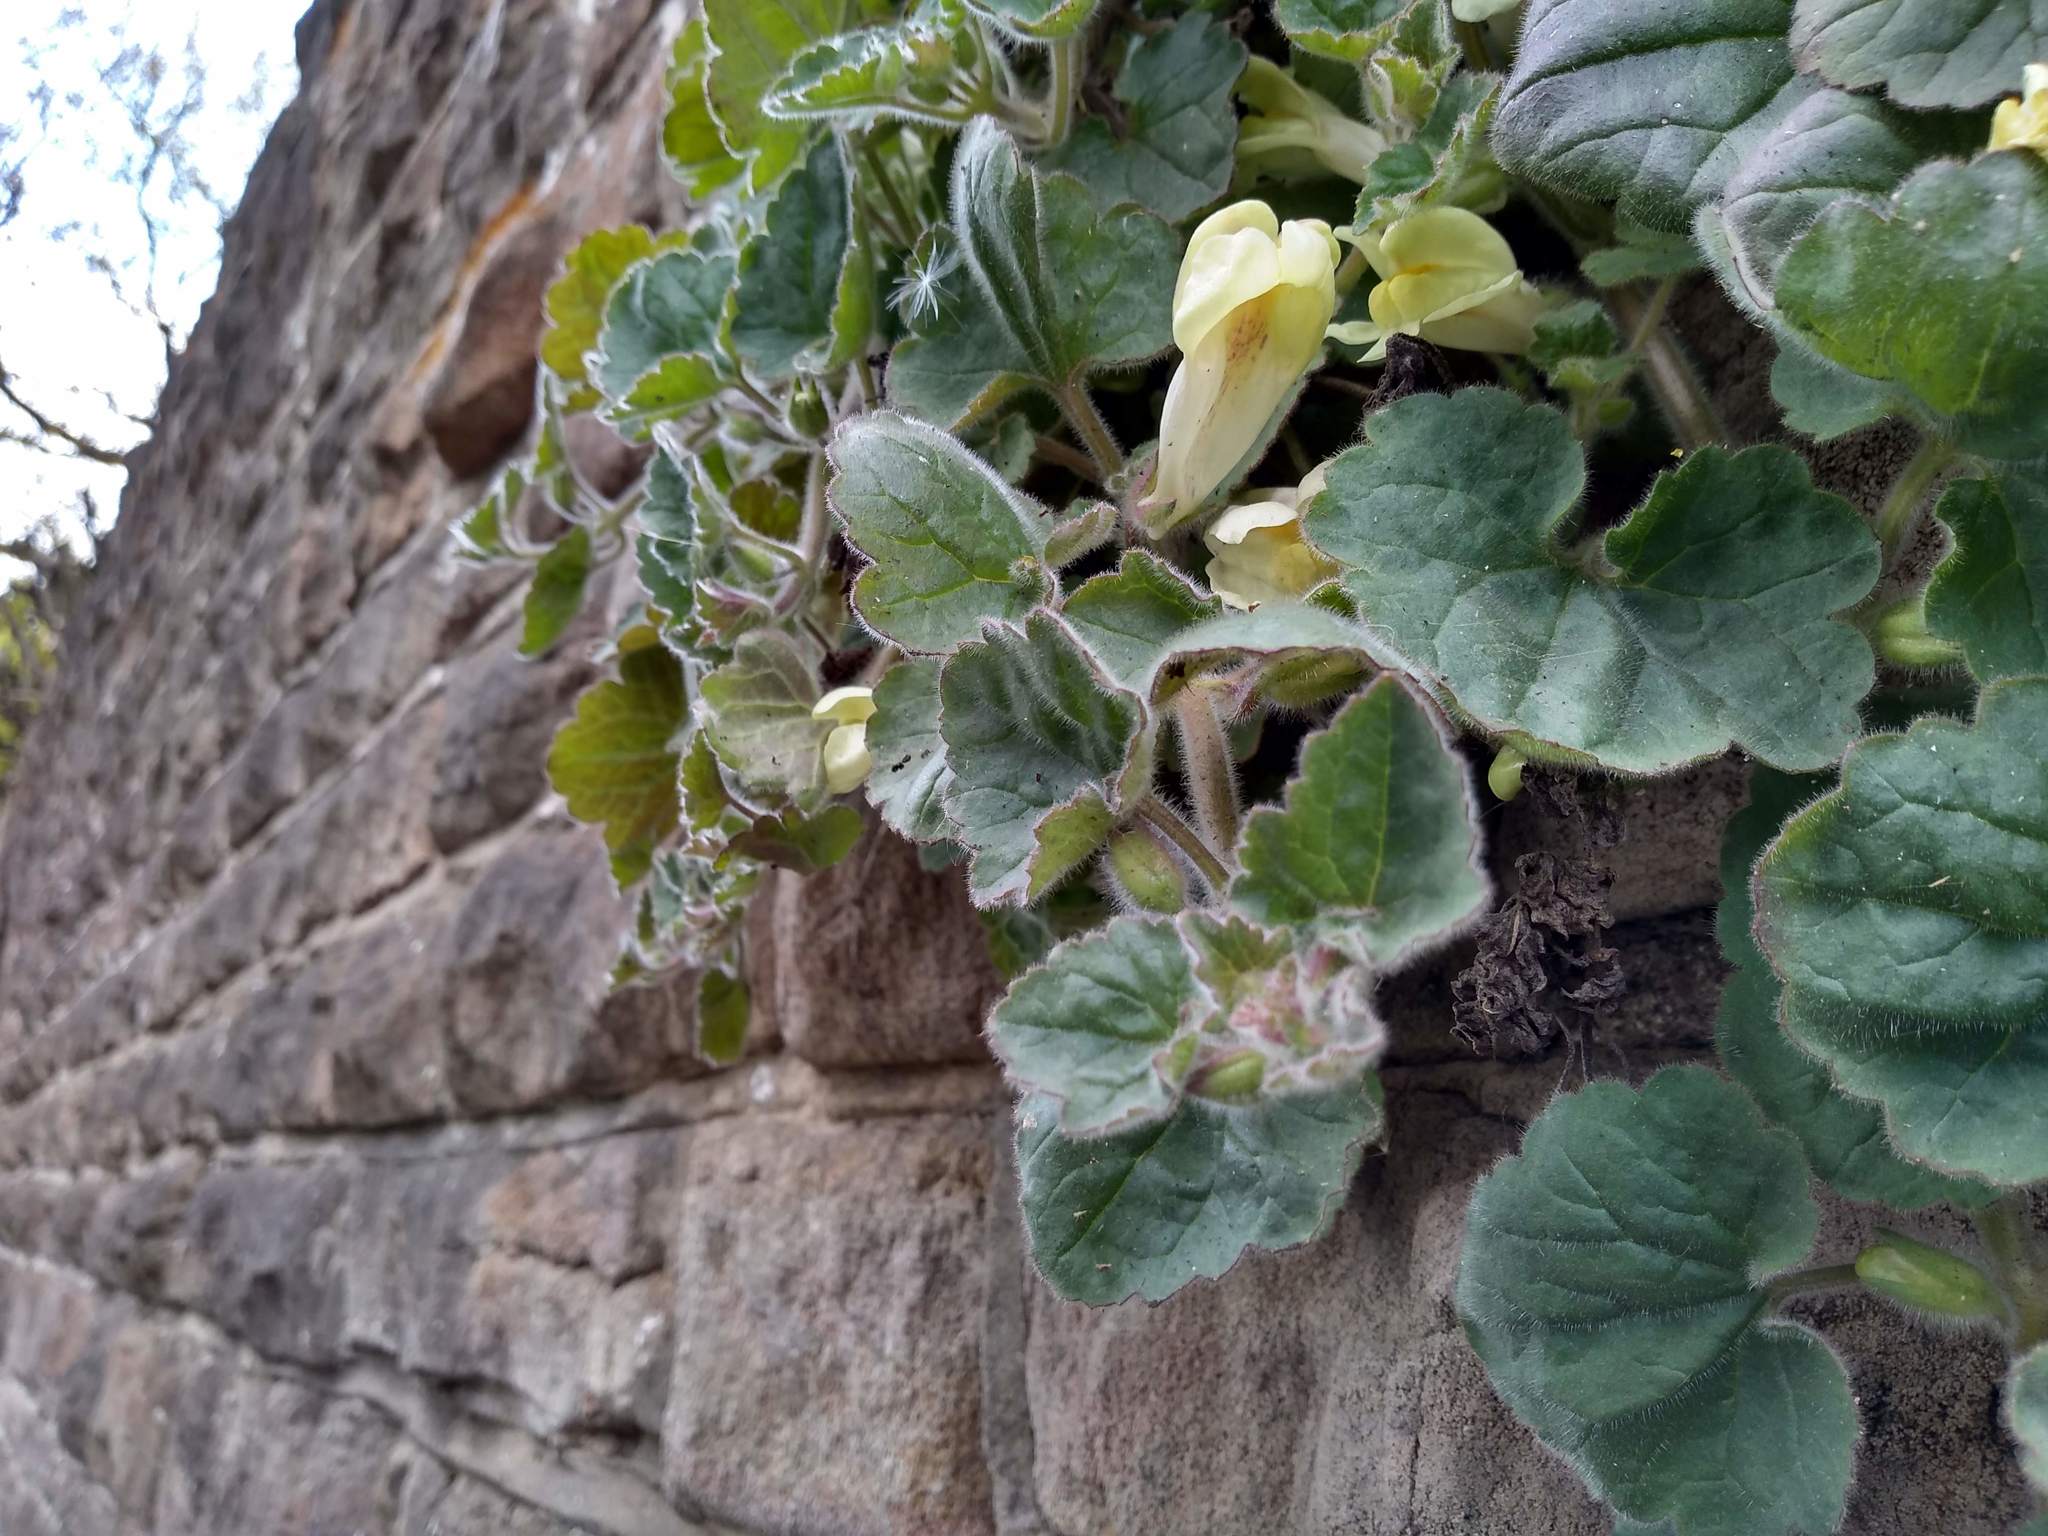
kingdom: Plantae
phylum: Tracheophyta
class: Magnoliopsida
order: Lamiales
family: Plantaginaceae
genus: Asarina
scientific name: Asarina procumbens
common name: Trailing snapdragon
